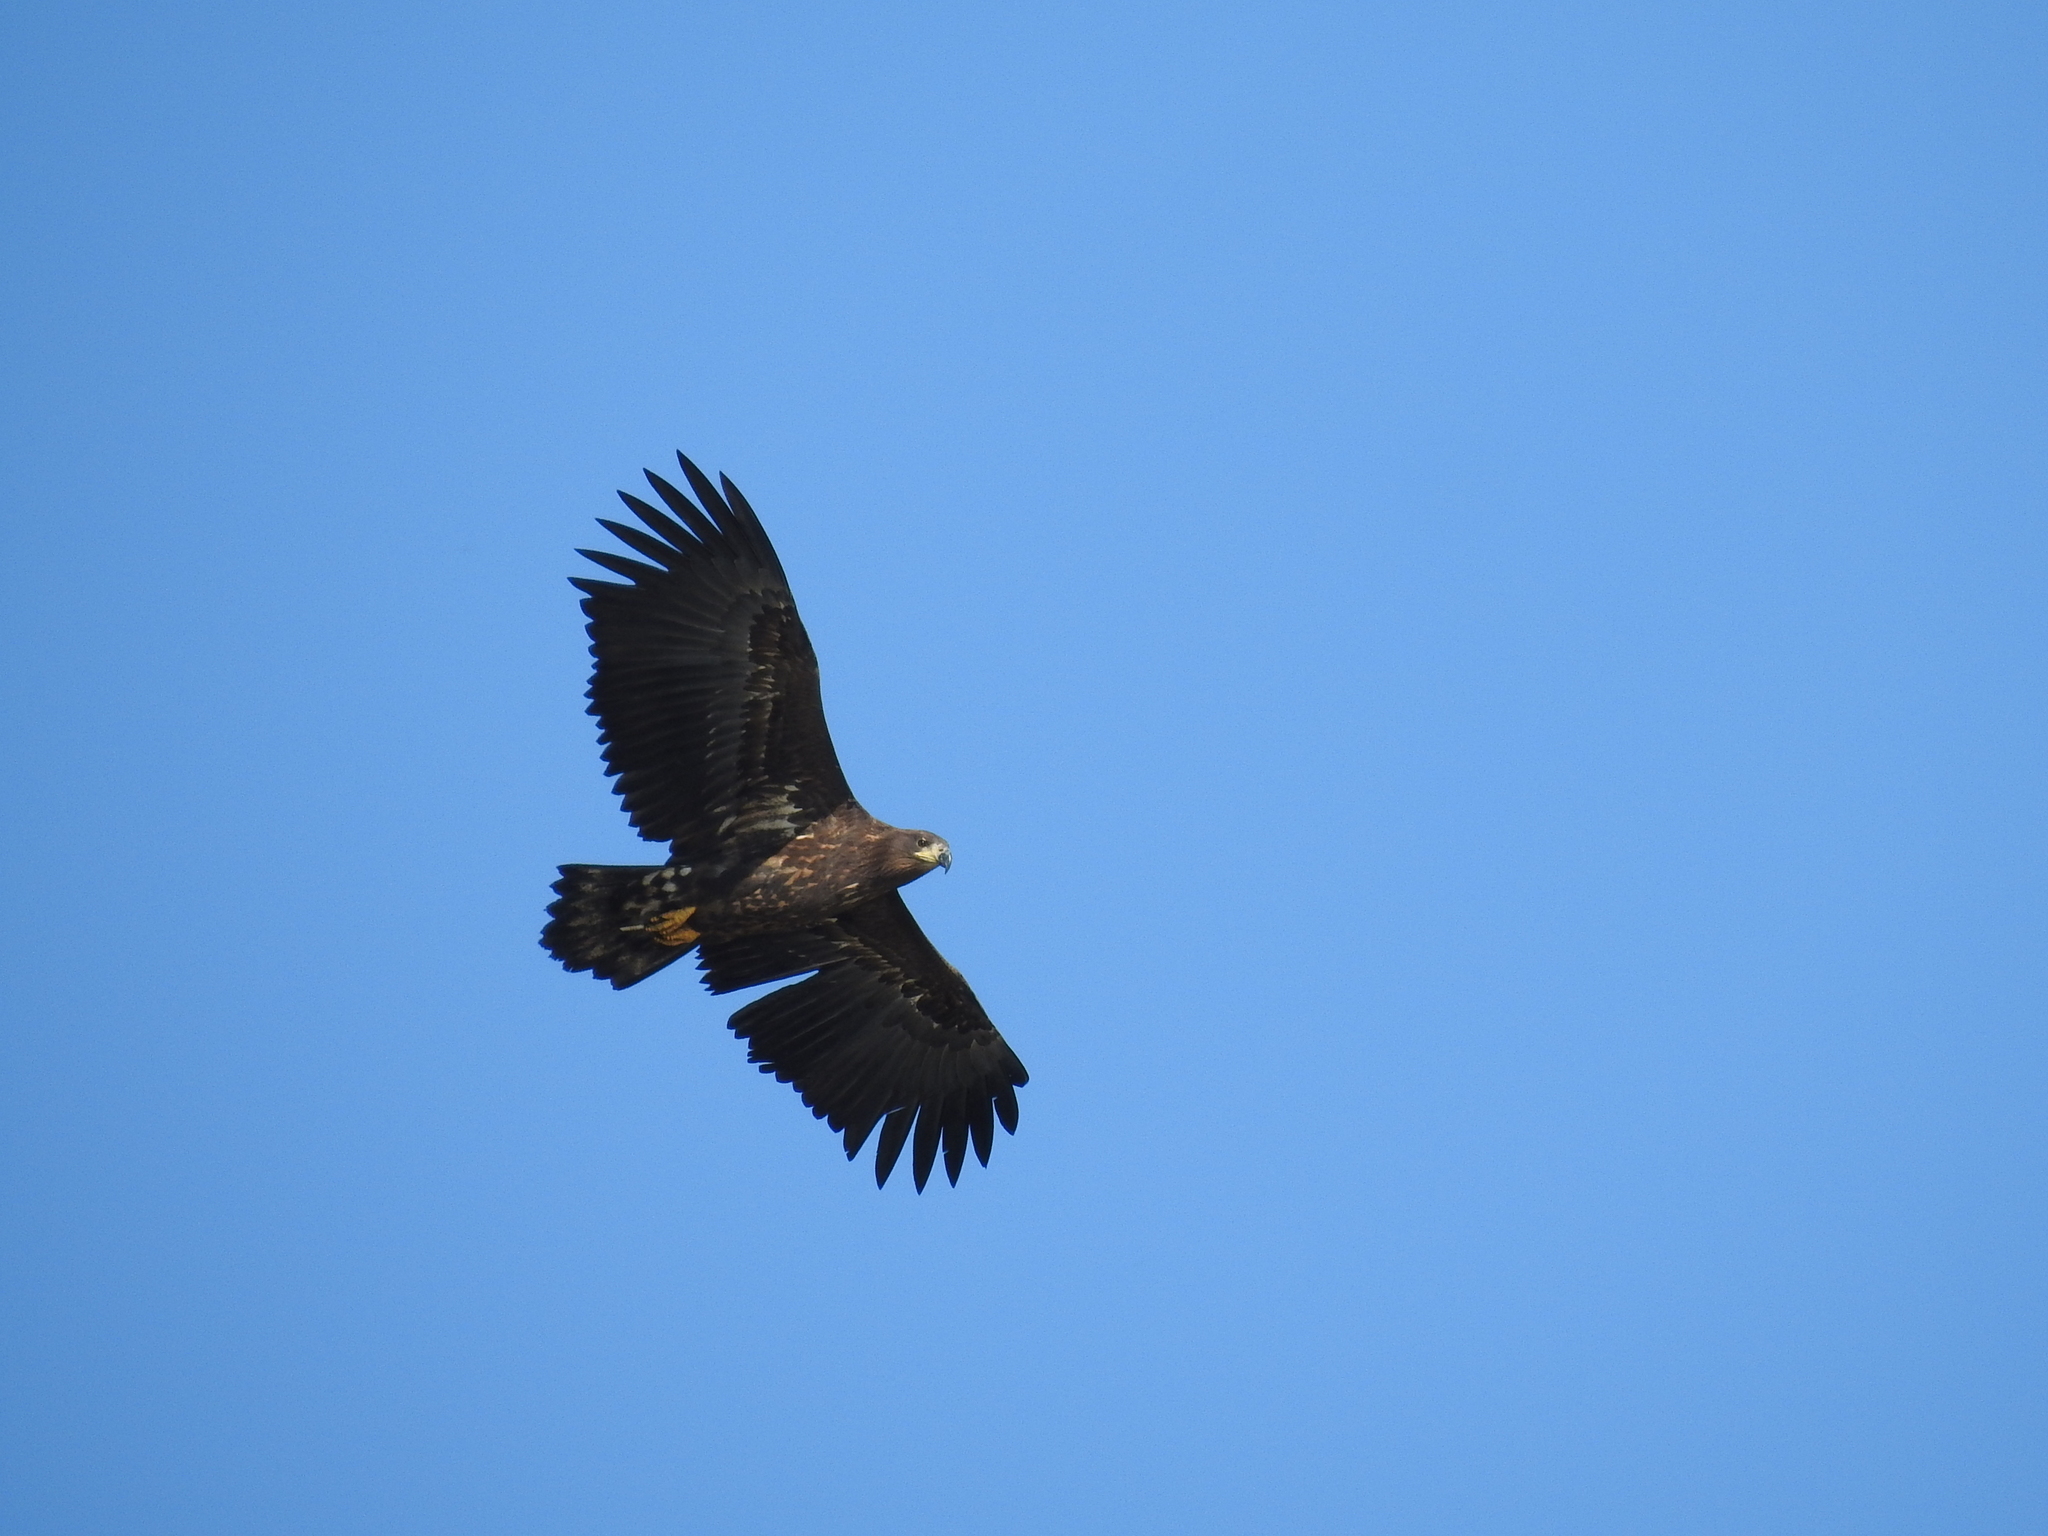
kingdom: Animalia
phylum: Chordata
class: Aves
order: Accipitriformes
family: Accipitridae
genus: Haliaeetus
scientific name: Haliaeetus albicilla
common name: White-tailed eagle
